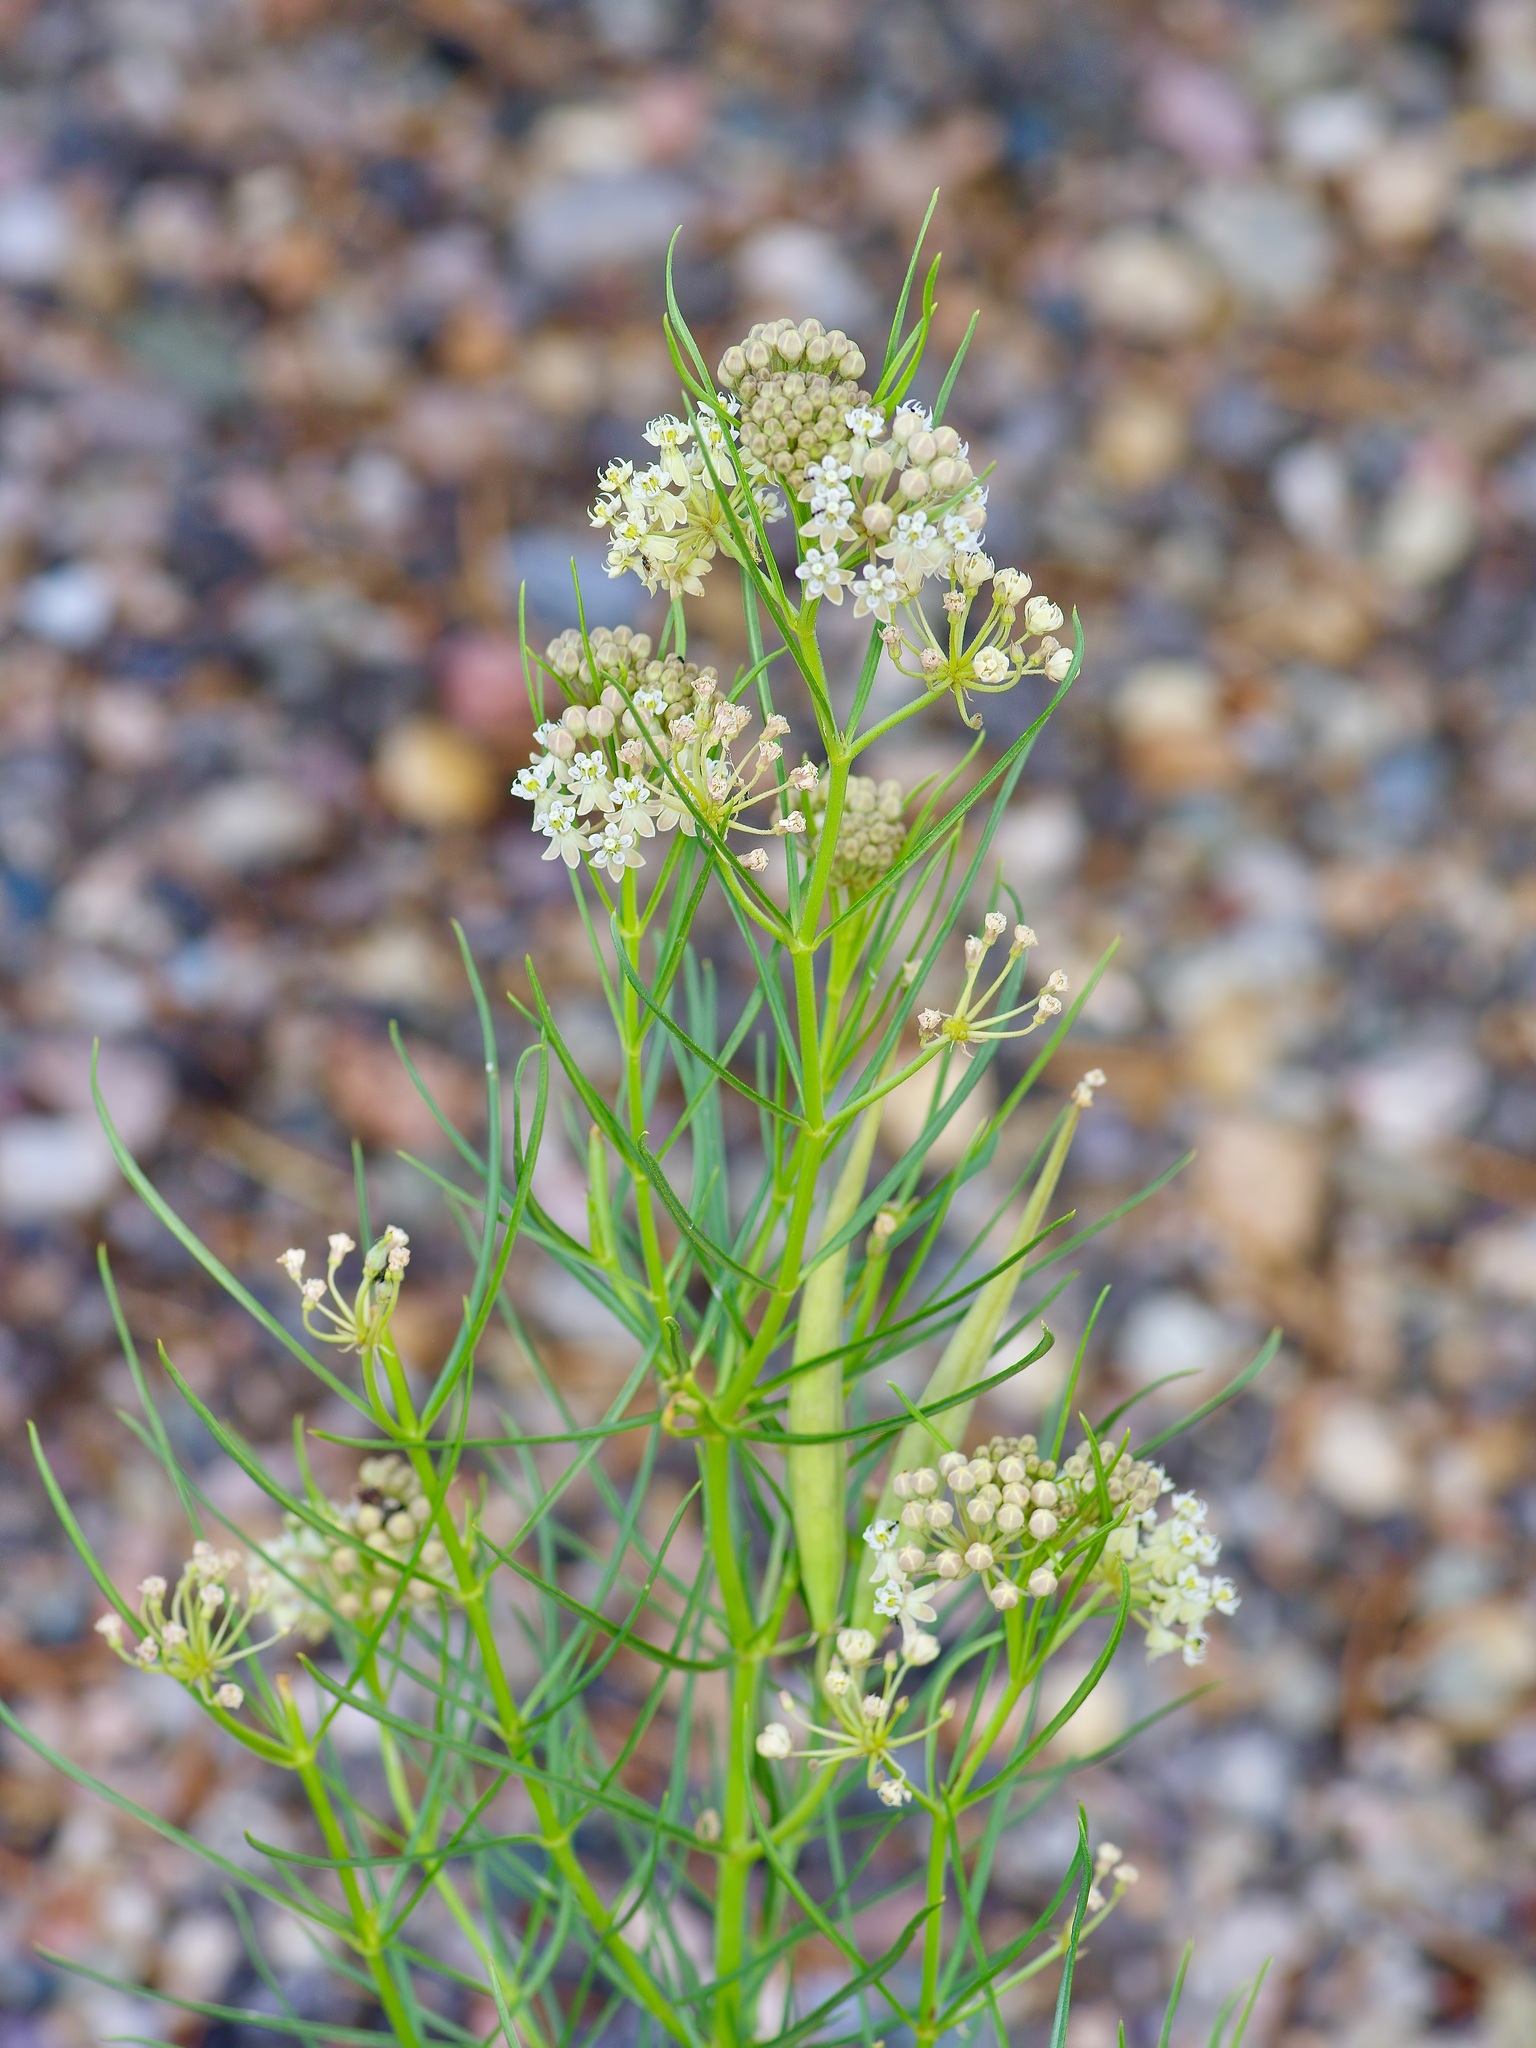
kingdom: Plantae
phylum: Tracheophyta
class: Magnoliopsida
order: Gentianales
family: Apocynaceae
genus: Asclepias
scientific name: Asclepias subverticillata
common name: Horsetail milkweed
